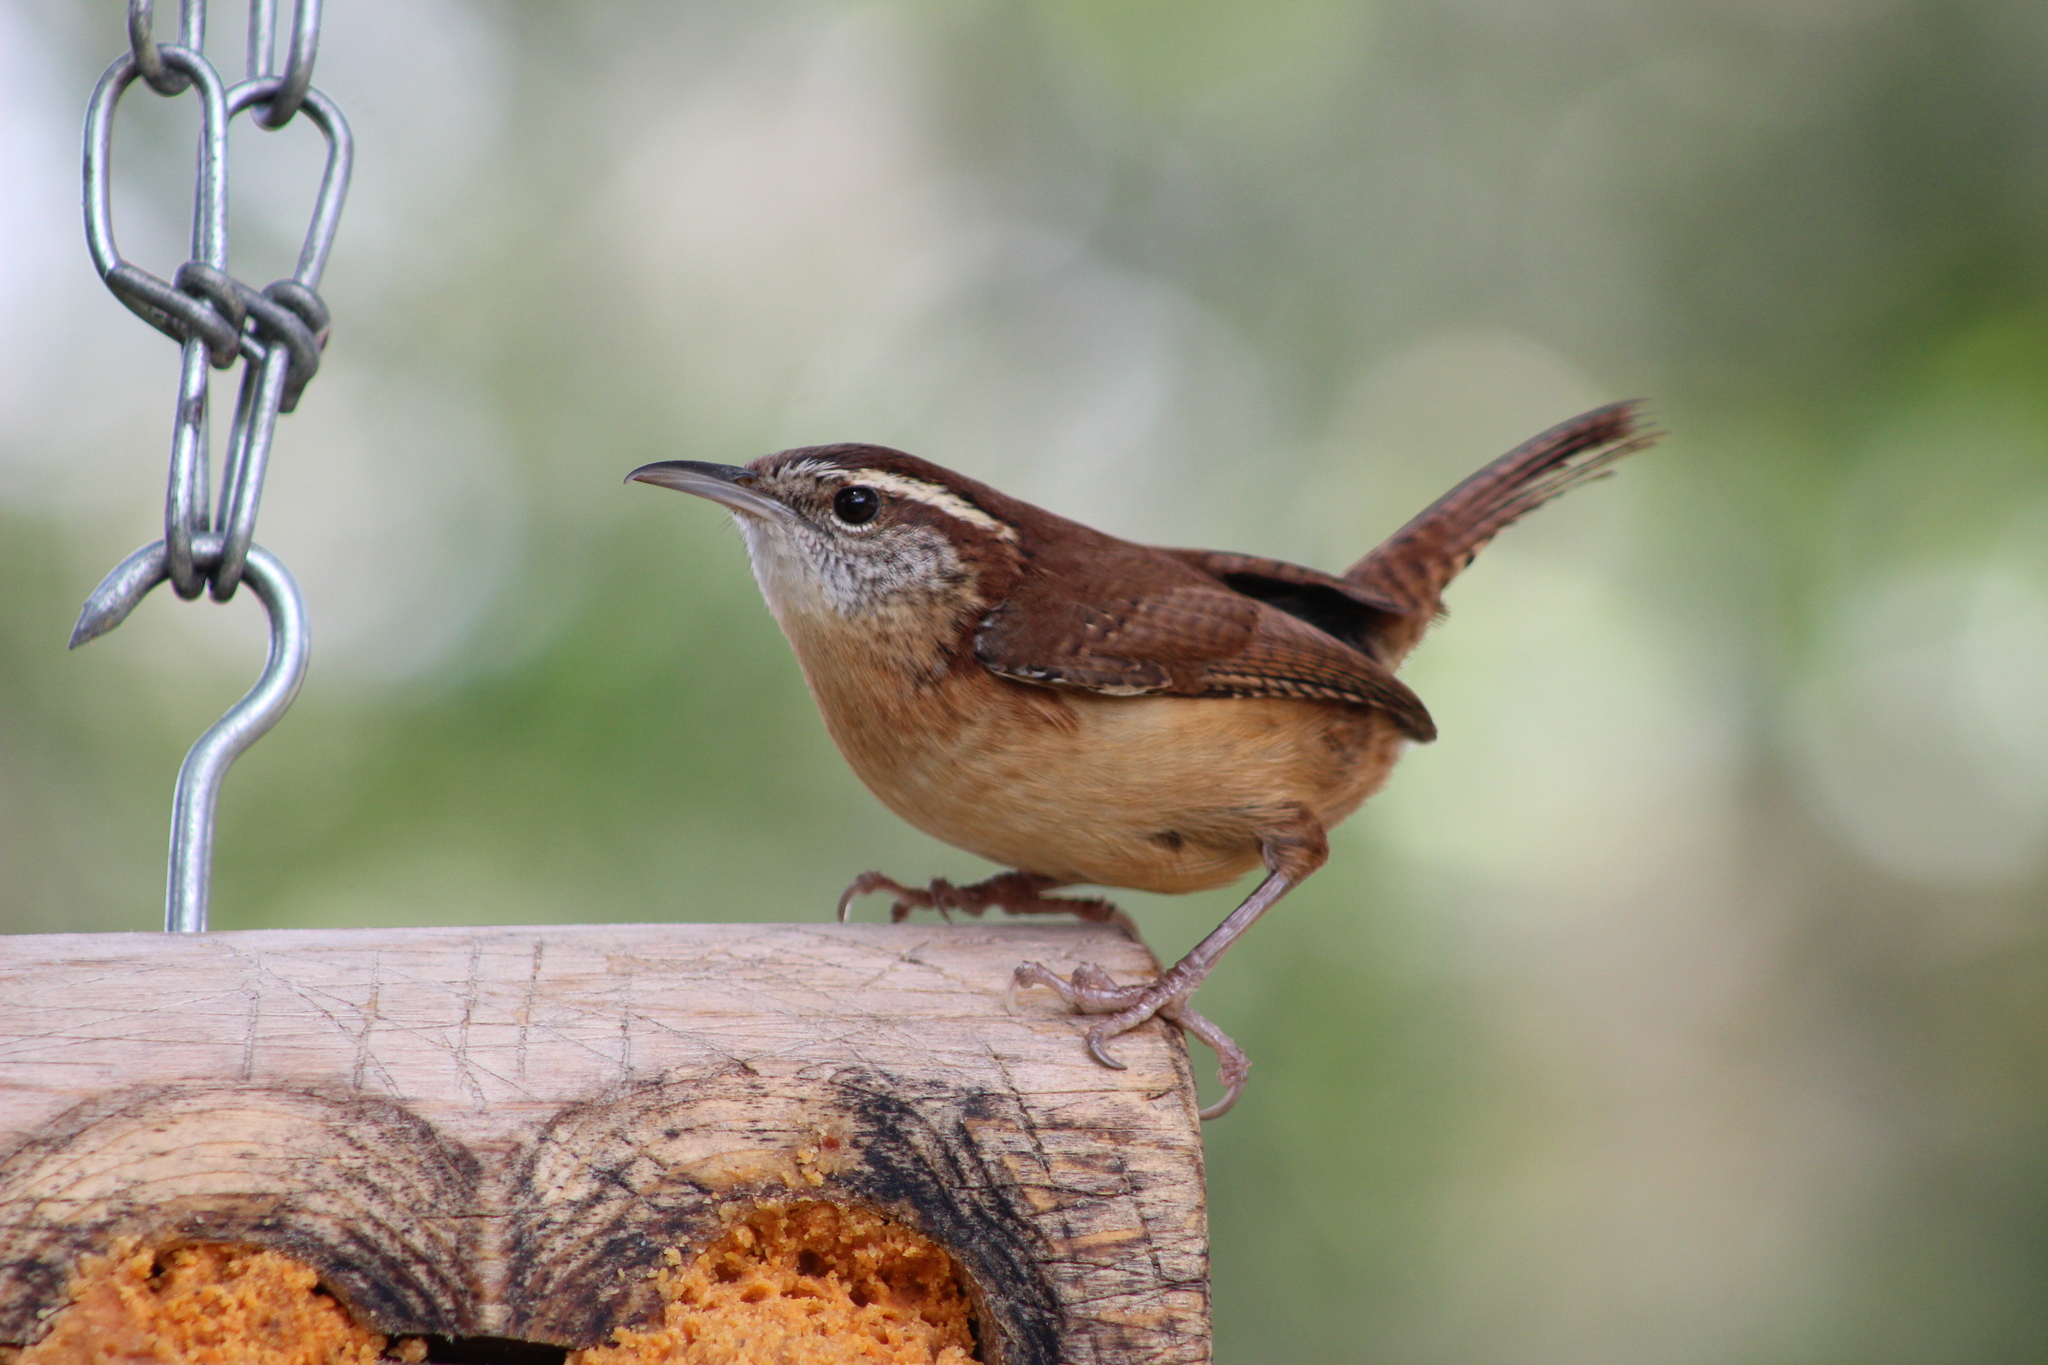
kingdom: Animalia
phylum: Chordata
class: Aves
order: Passeriformes
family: Troglodytidae
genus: Thryothorus
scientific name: Thryothorus ludovicianus
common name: Carolina wren
